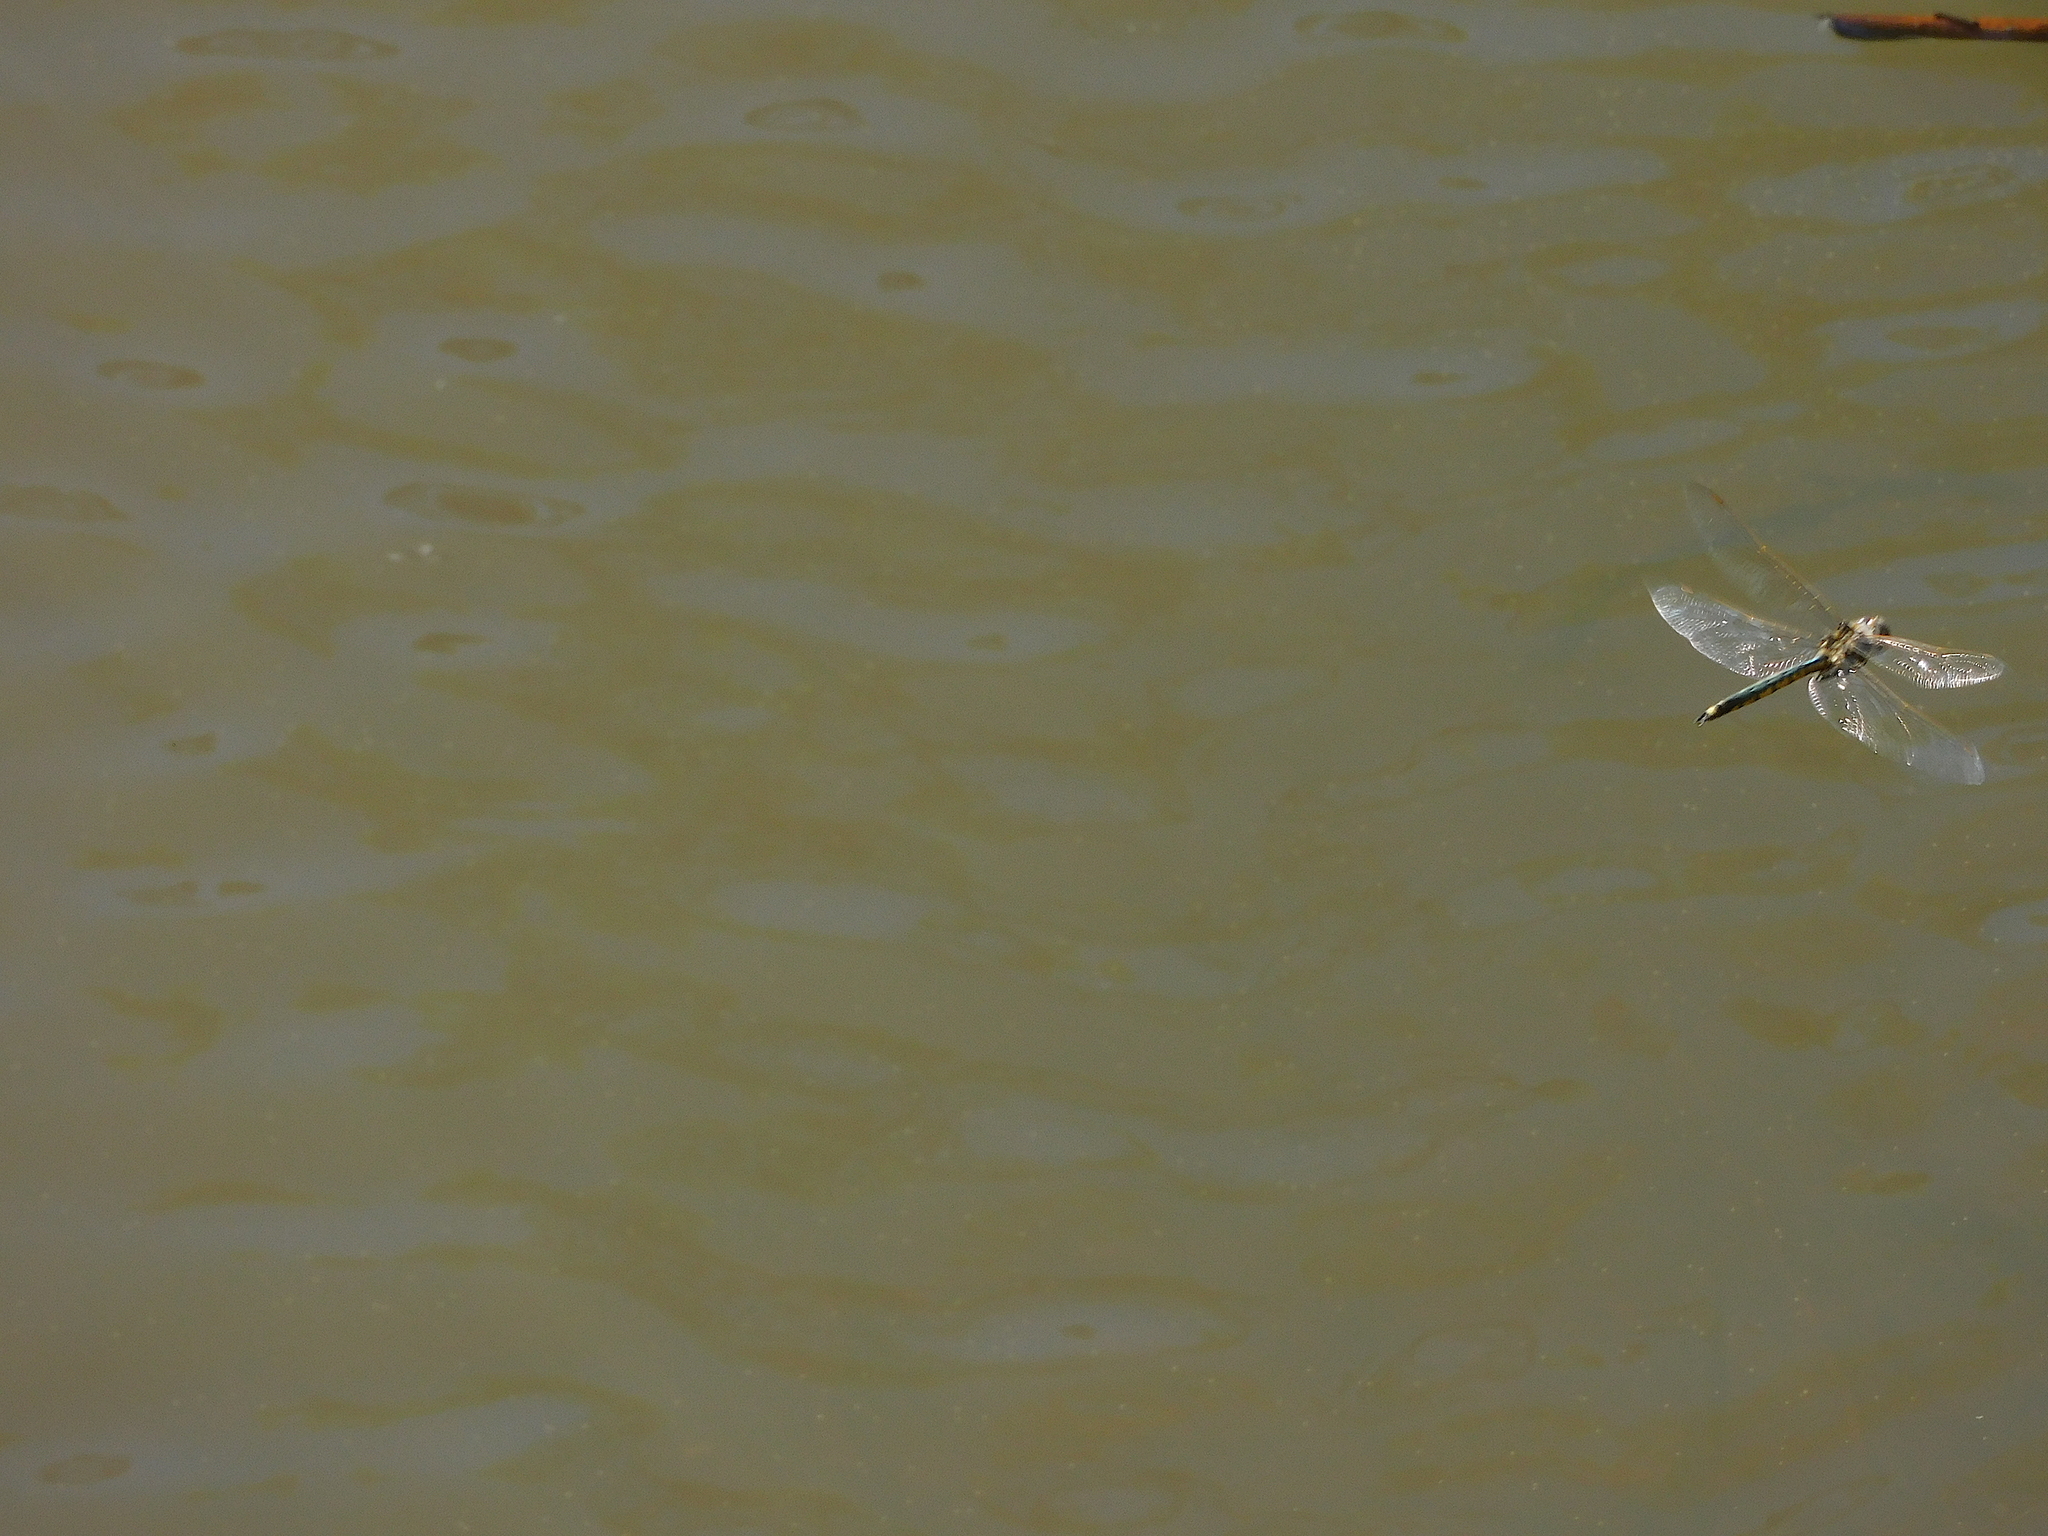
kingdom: Animalia
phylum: Arthropoda
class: Insecta
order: Odonata
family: Corduliidae
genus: Hemicordulia
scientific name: Hemicordulia tau
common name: Tau emerald
